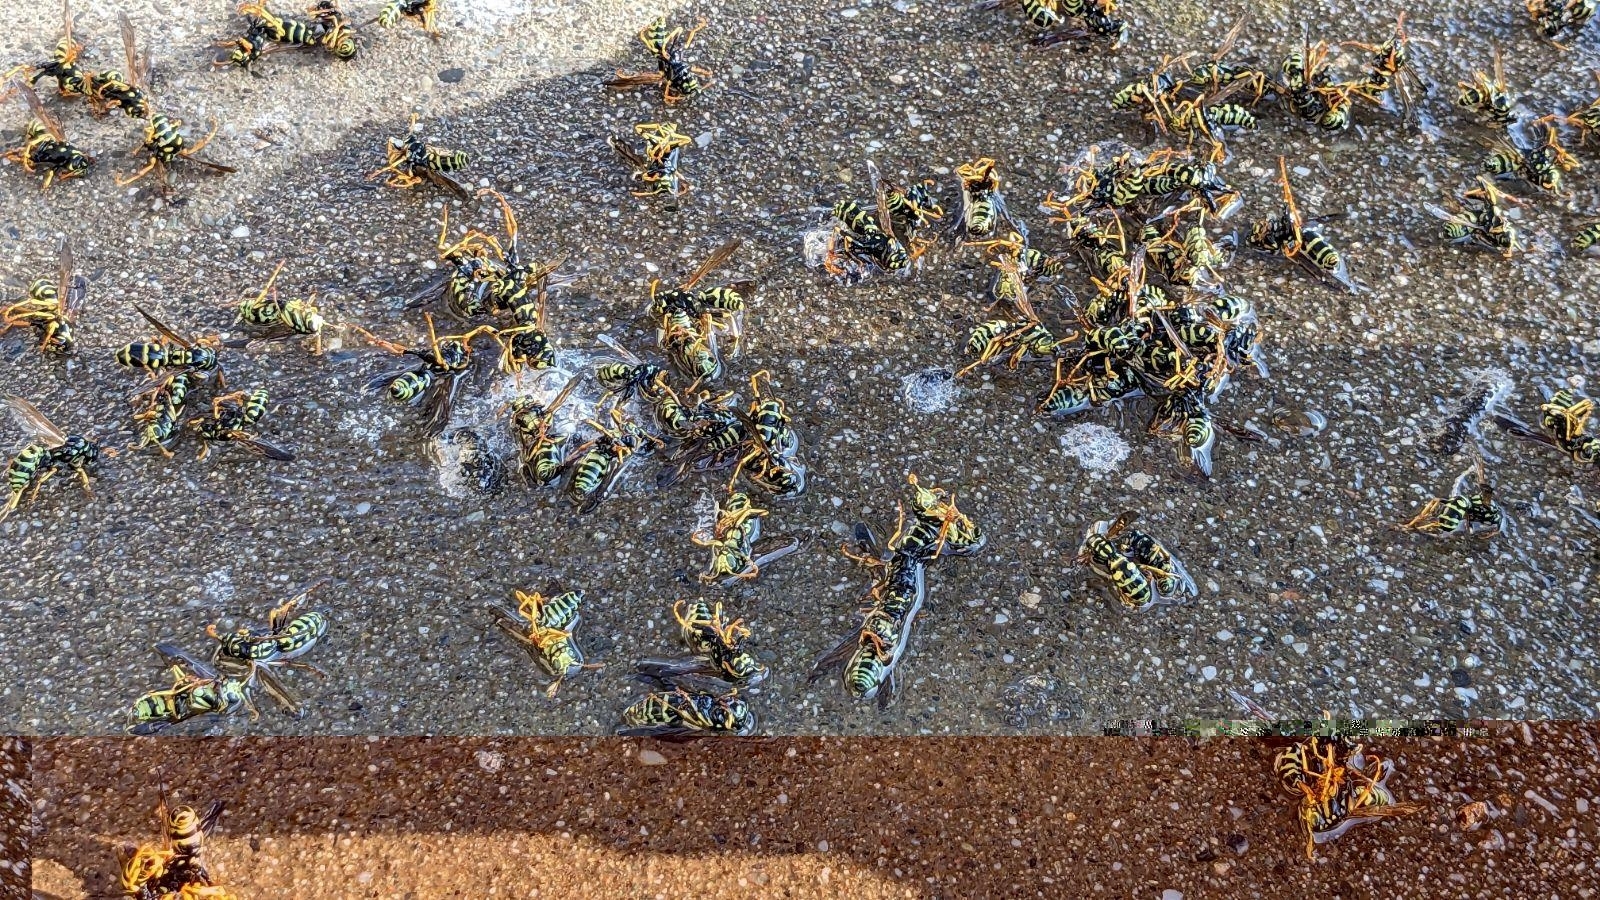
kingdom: Animalia
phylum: Arthropoda
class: Insecta
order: Hymenoptera
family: Eumenidae
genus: Polistes
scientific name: Polistes dominula
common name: Paper wasp
